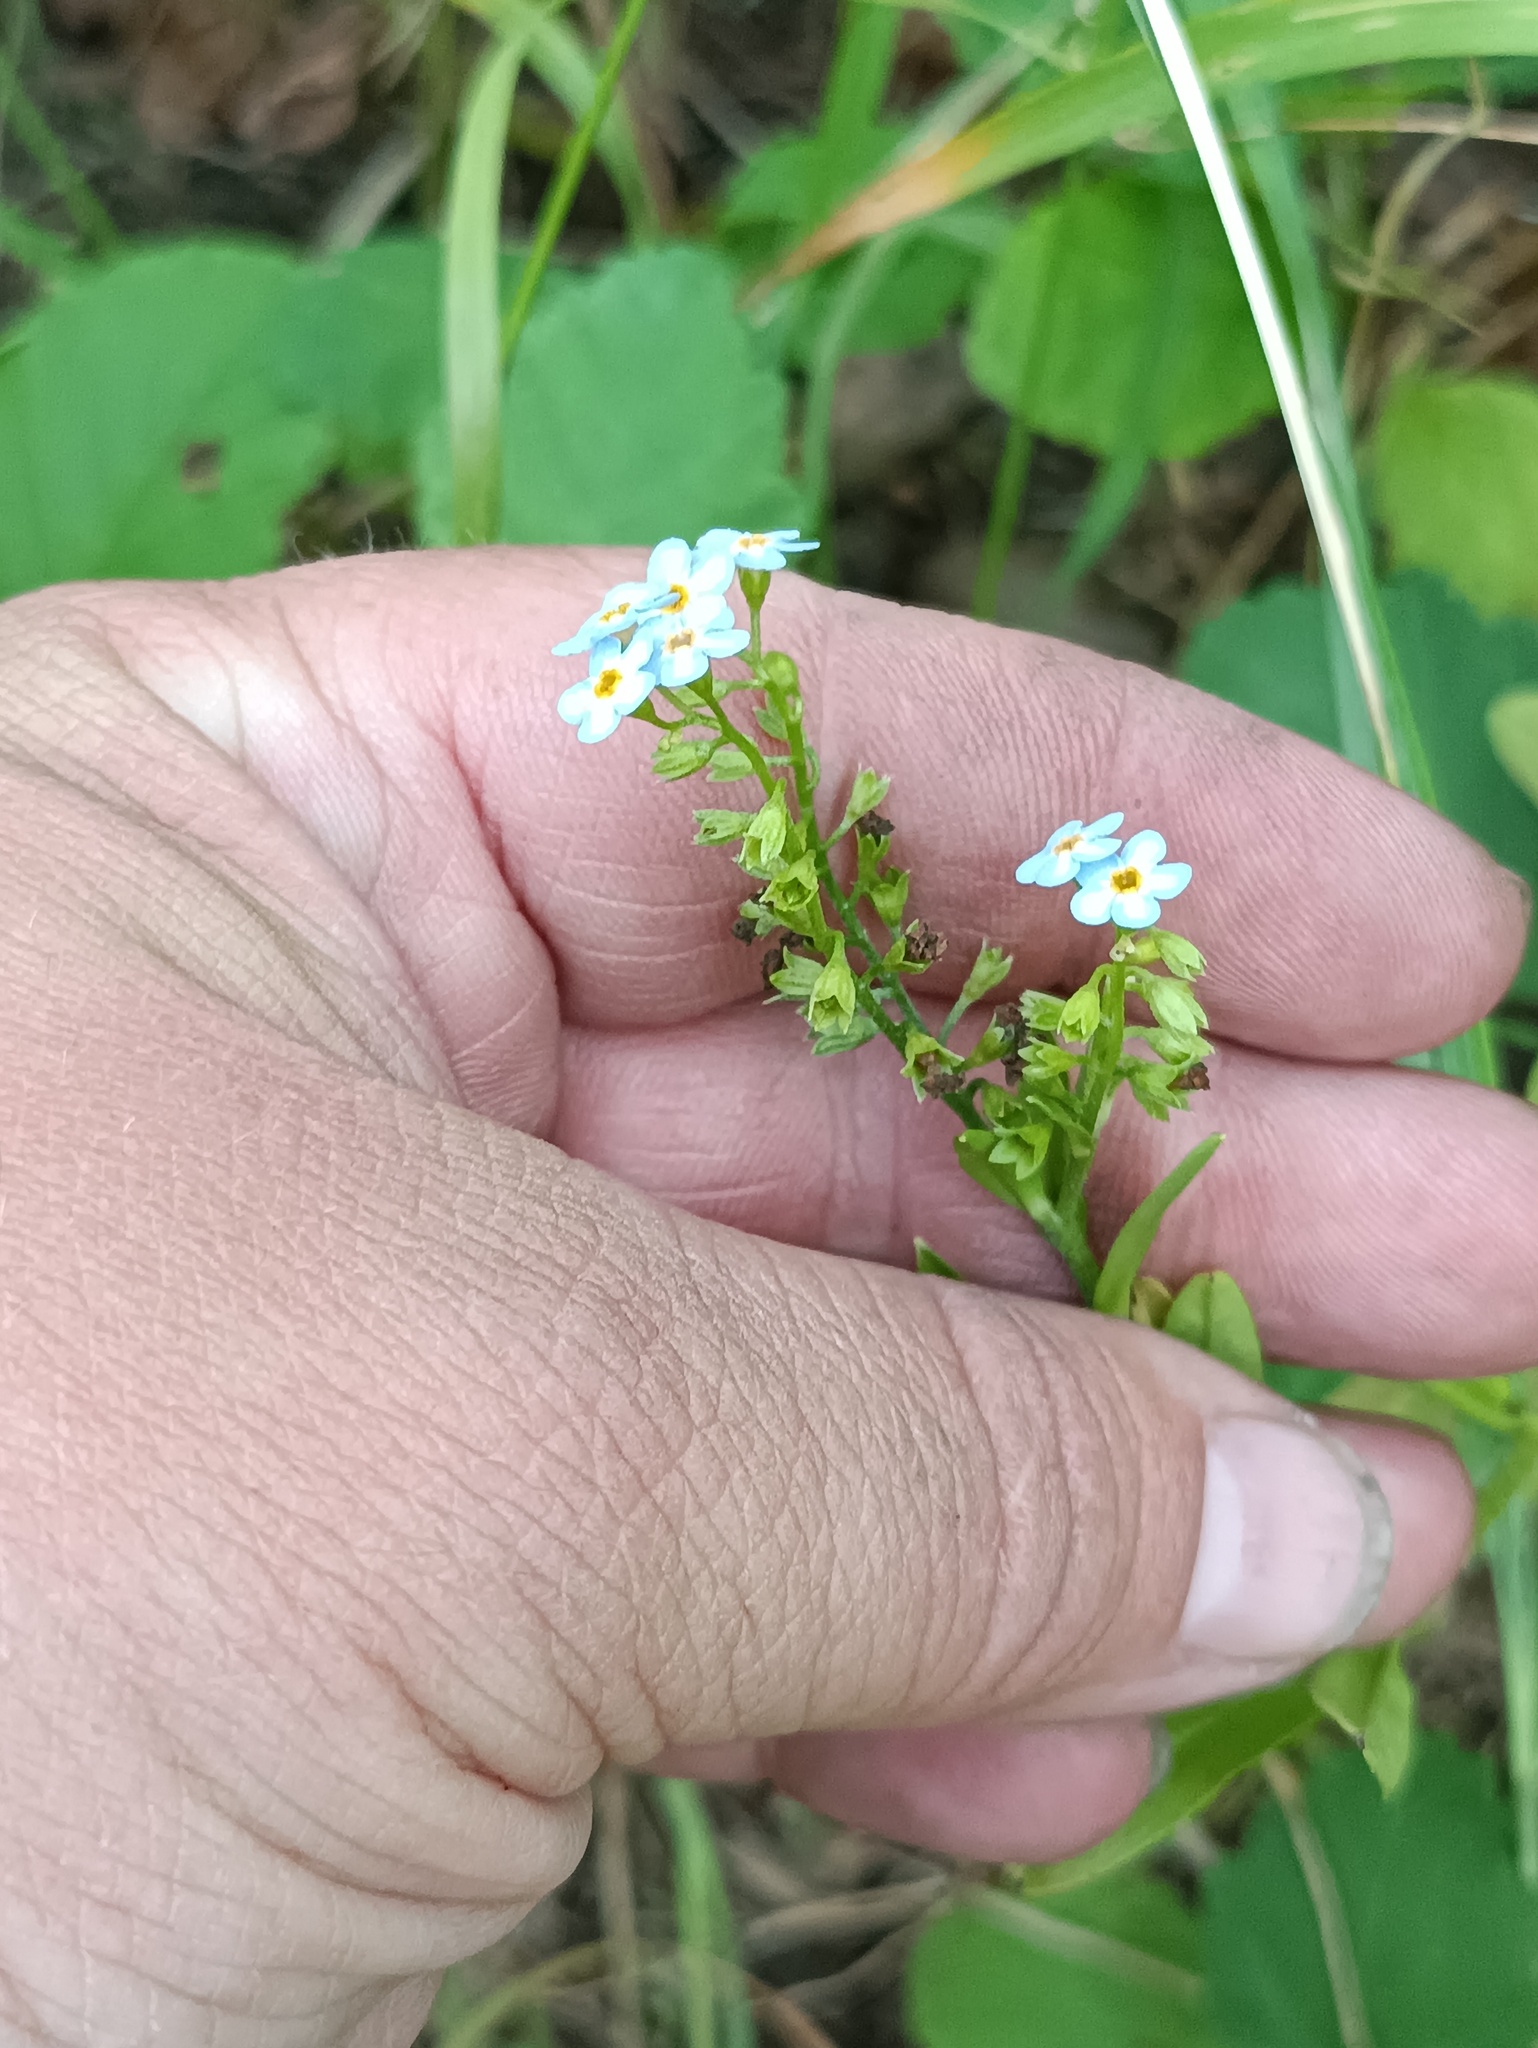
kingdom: Plantae
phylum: Tracheophyta
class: Magnoliopsida
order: Boraginales
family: Boraginaceae
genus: Myosotis
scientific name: Myosotis scorpioides
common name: Water forget-me-not
